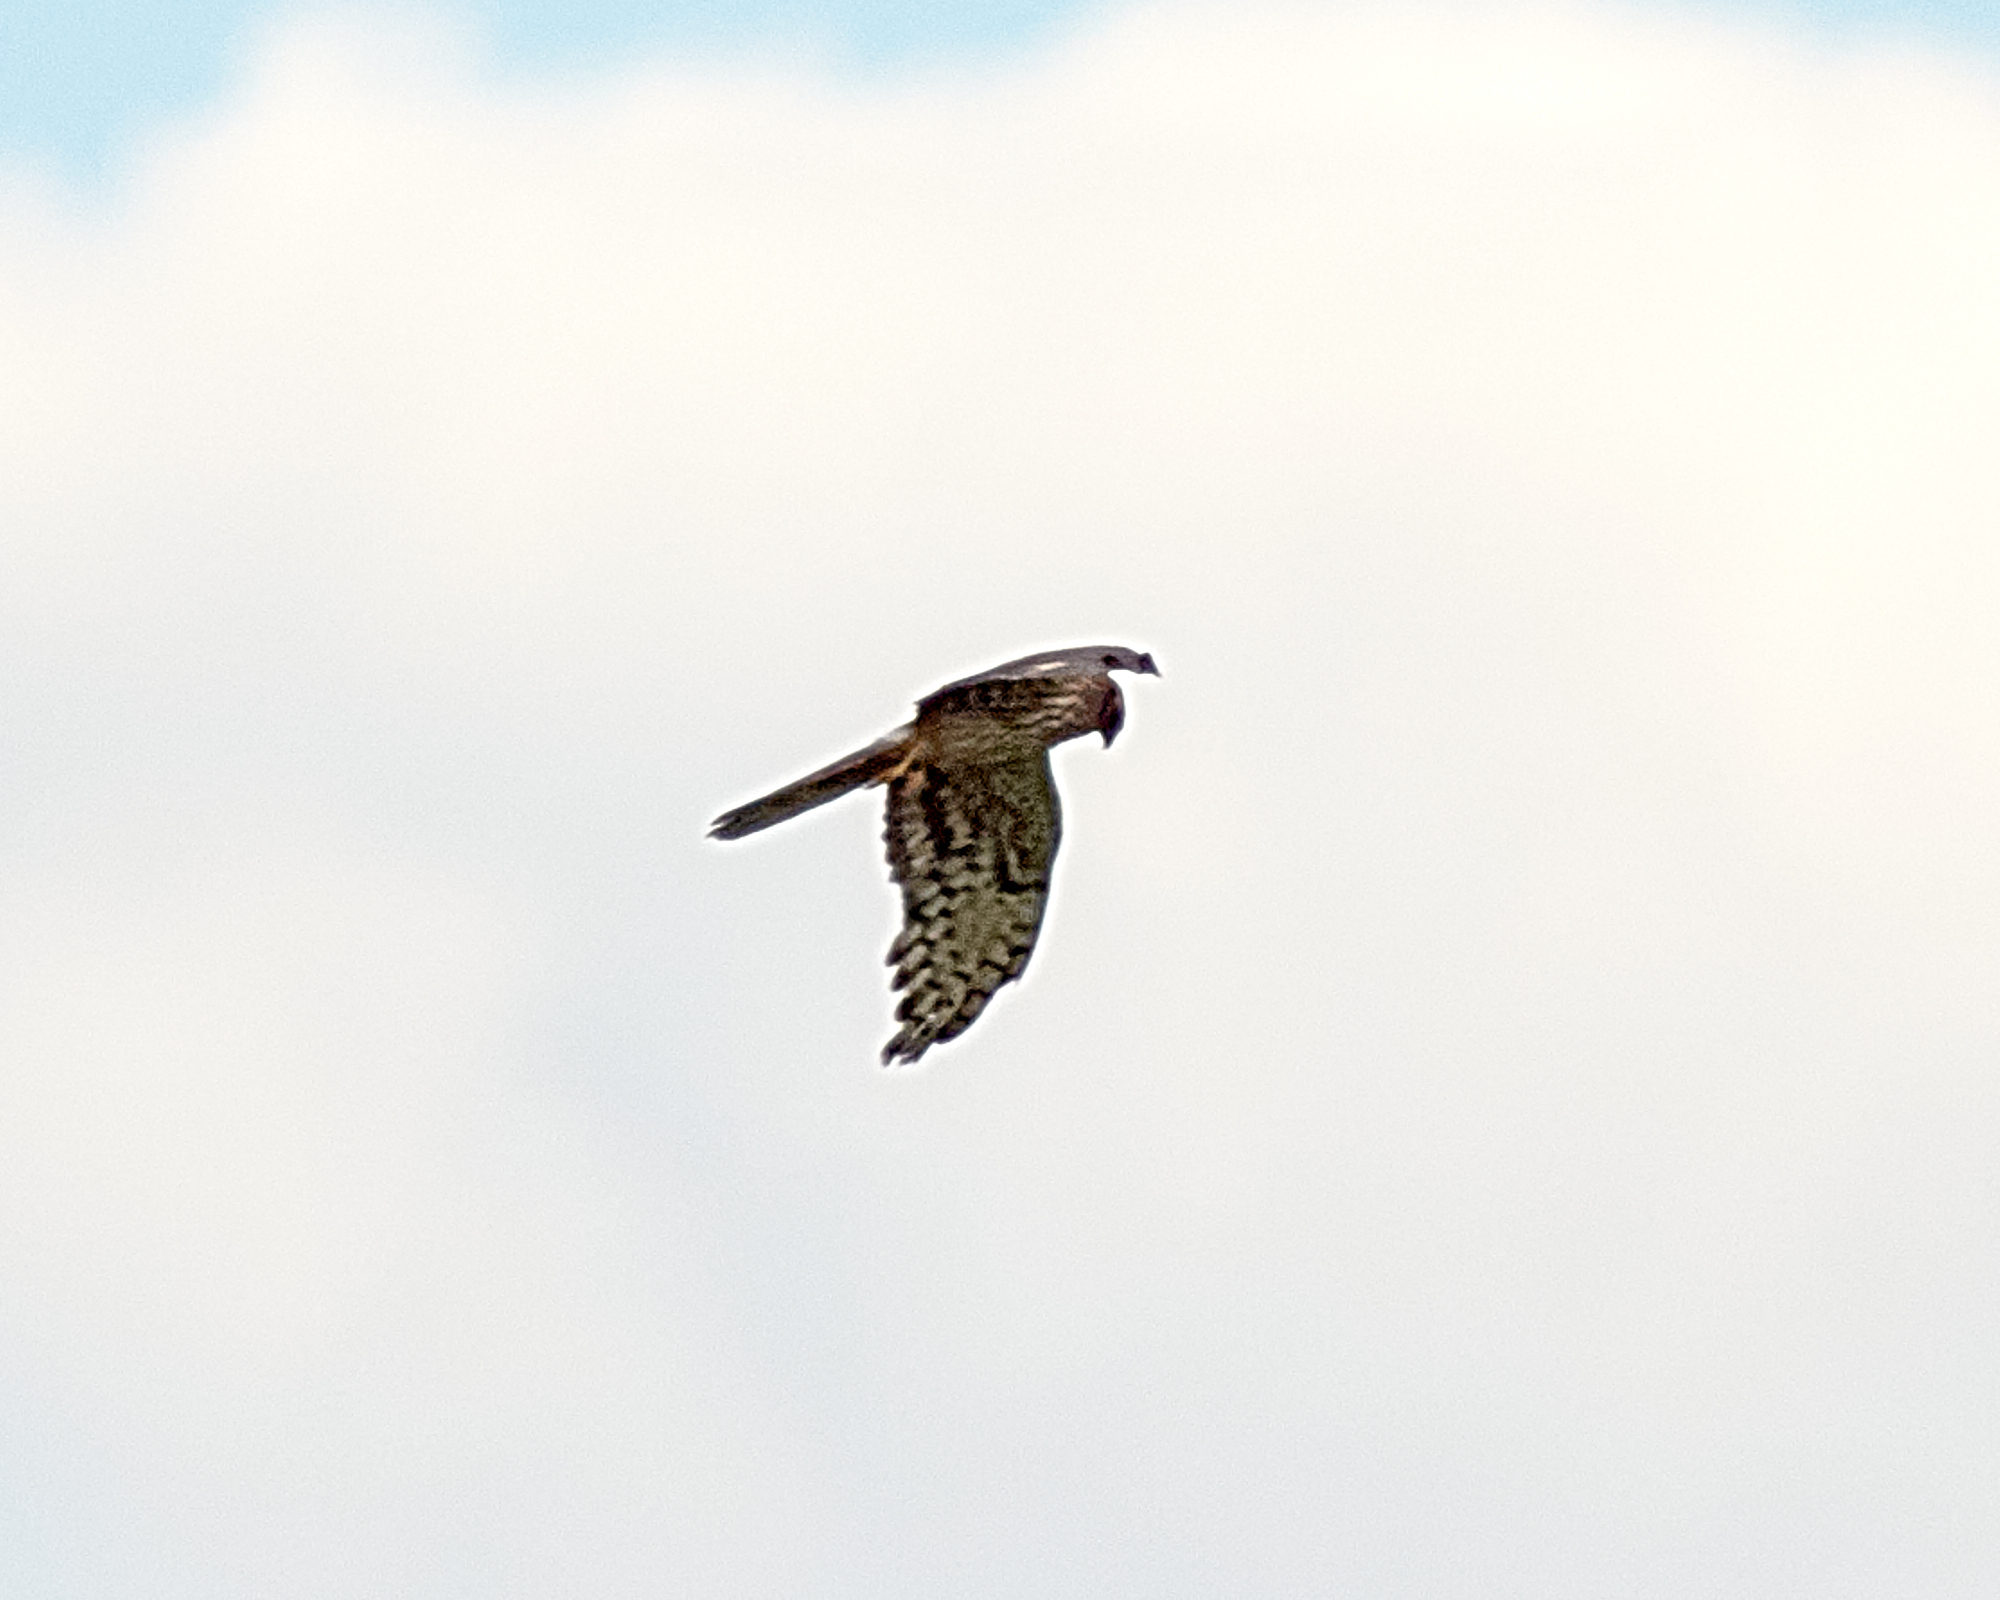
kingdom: Animalia
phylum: Chordata
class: Aves
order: Accipitriformes
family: Accipitridae
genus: Circus
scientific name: Circus pygargus
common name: Montagu's harrier
